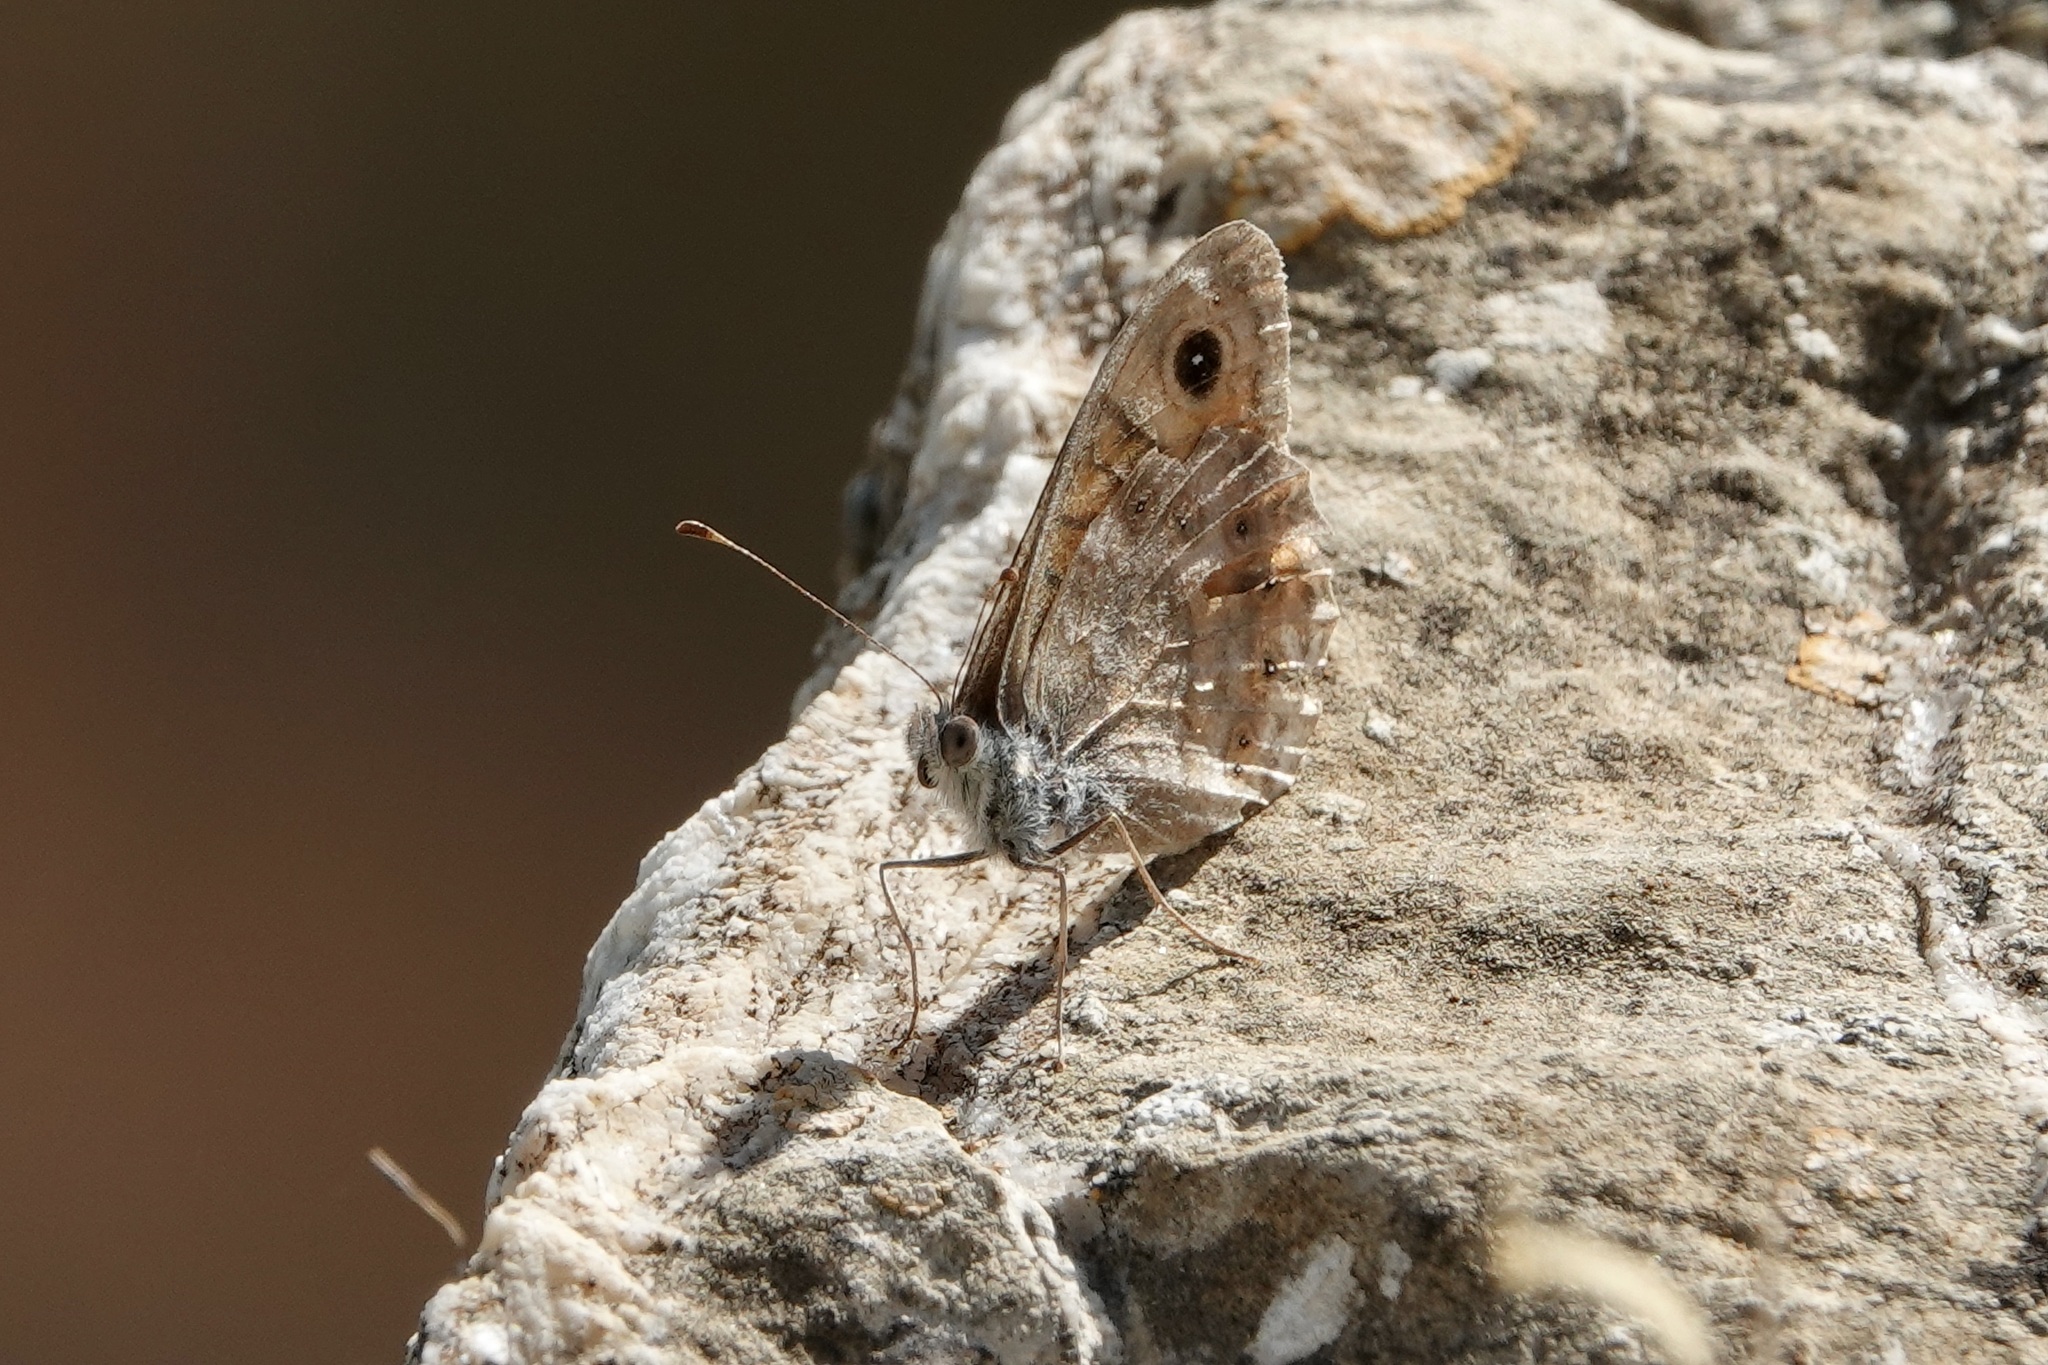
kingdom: Animalia
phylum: Arthropoda
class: Insecta
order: Lepidoptera
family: Nymphalidae
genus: Pararge
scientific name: Pararge Lasiommata megera
